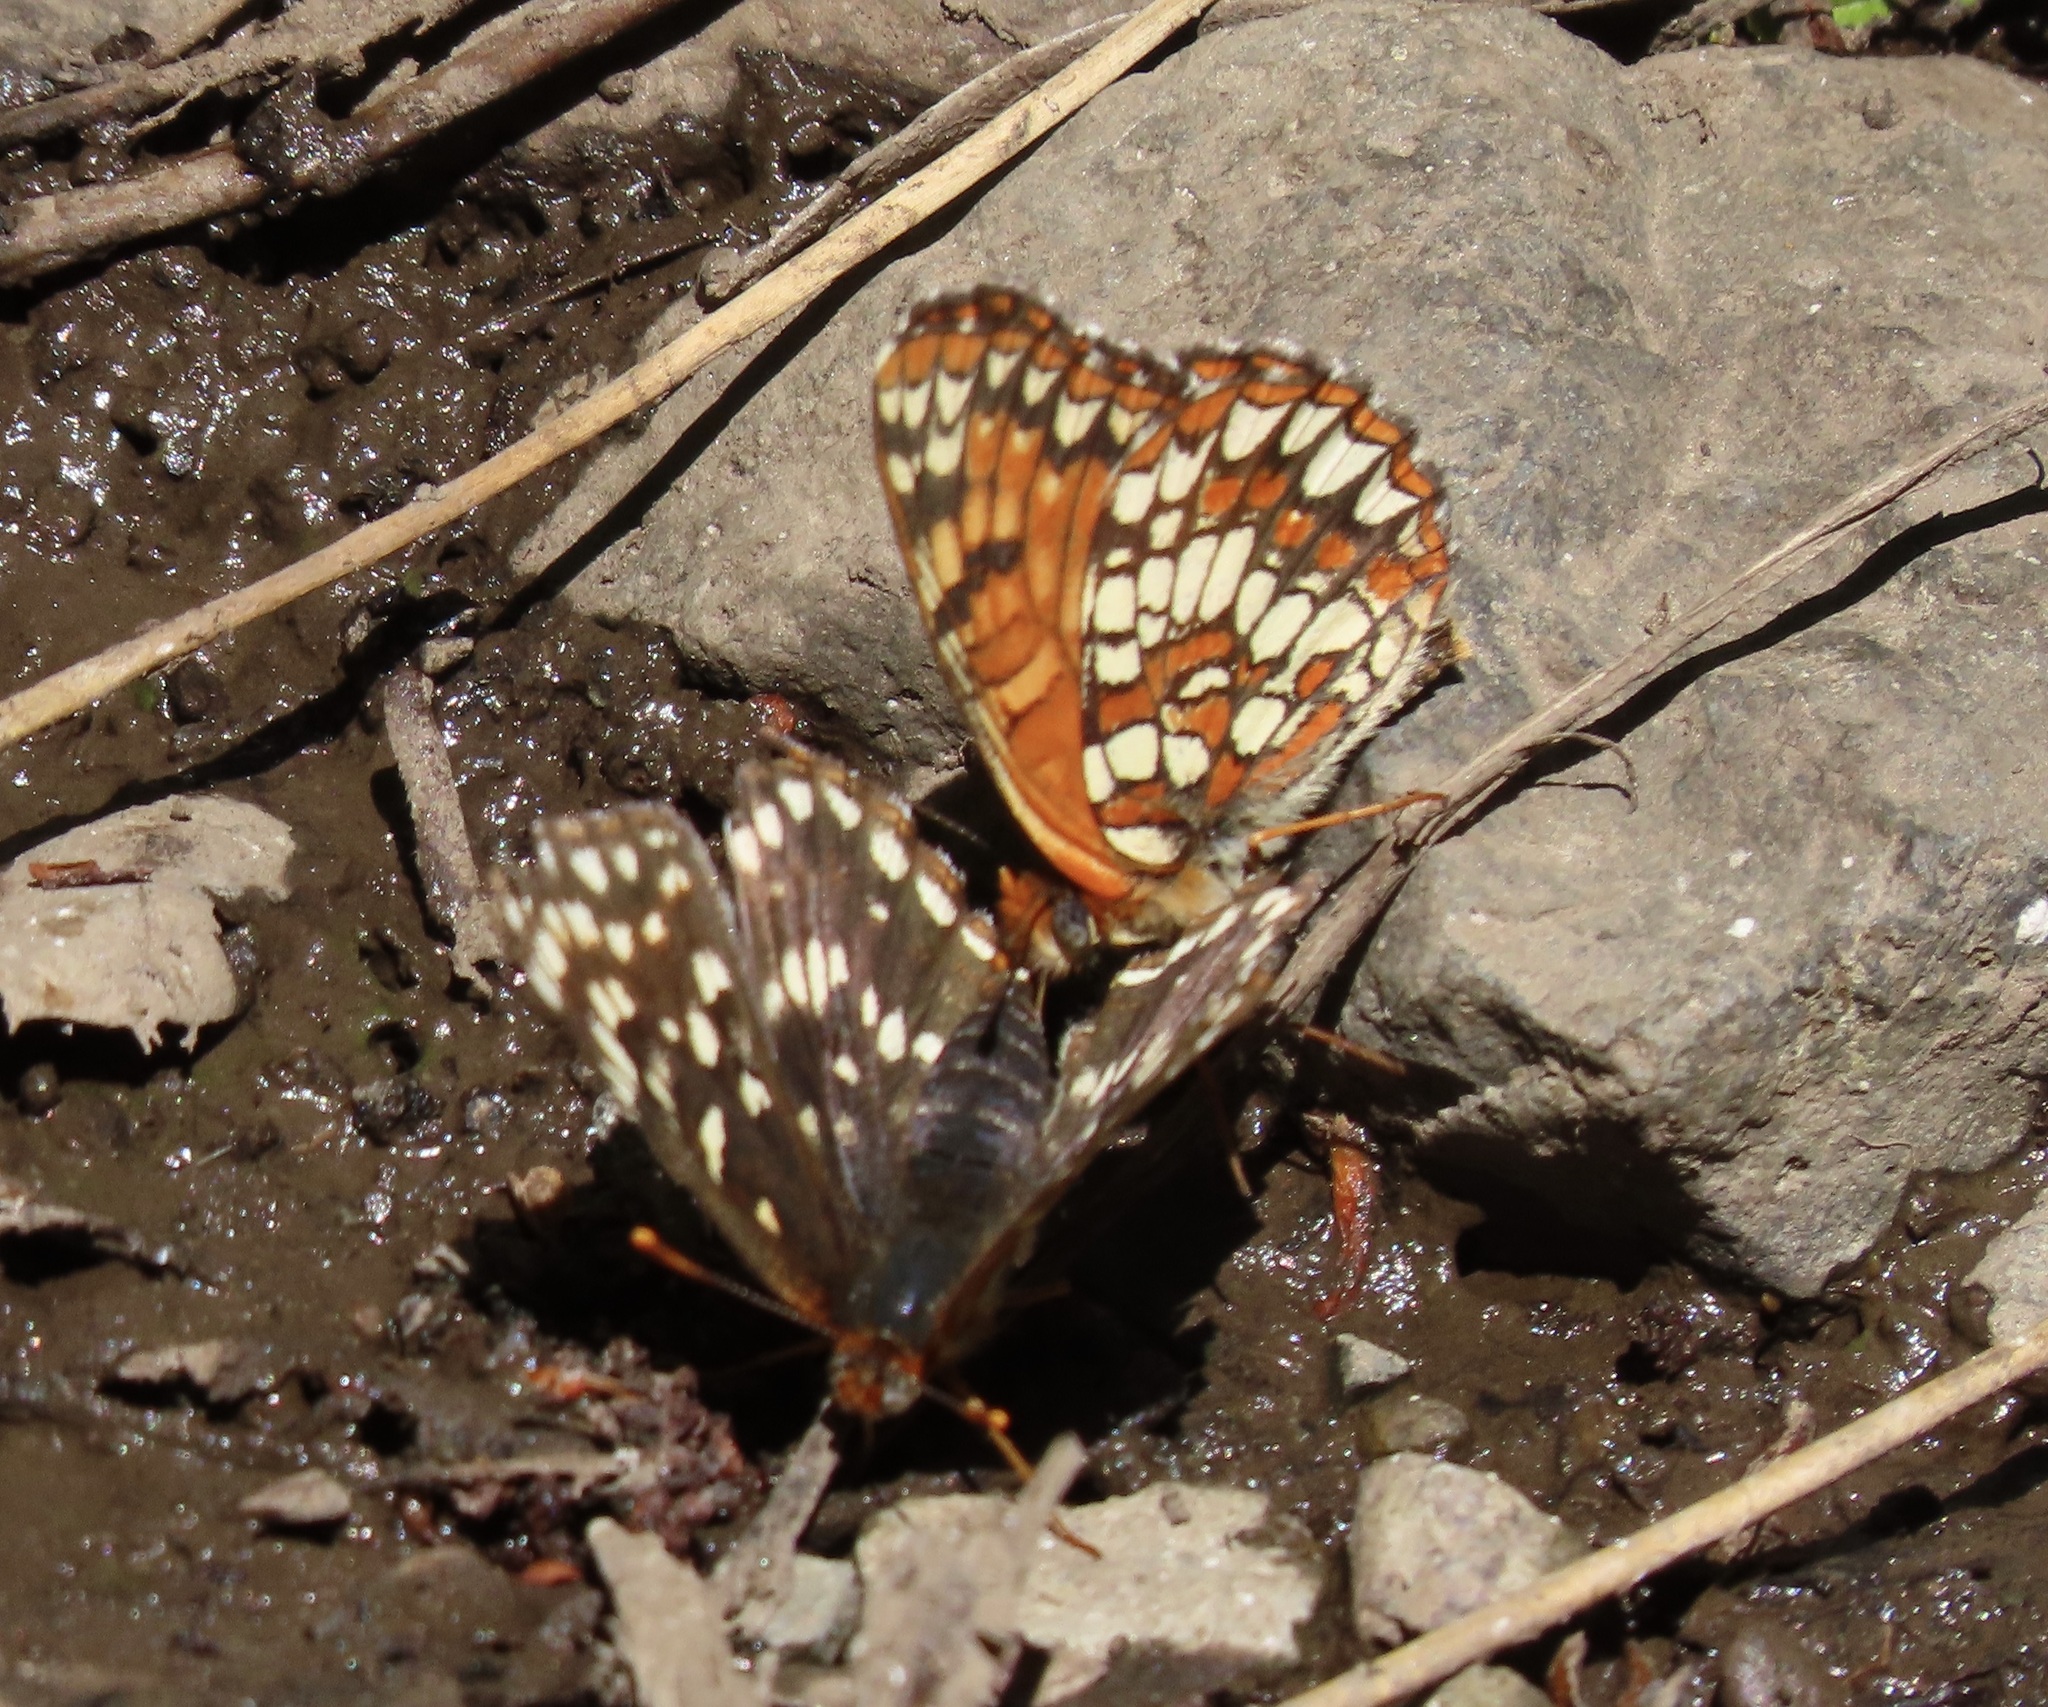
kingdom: Animalia
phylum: Arthropoda
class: Insecta
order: Lepidoptera
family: Nymphalidae
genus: Chlosyne
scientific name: Chlosyne palla
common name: Northern checkerspot
